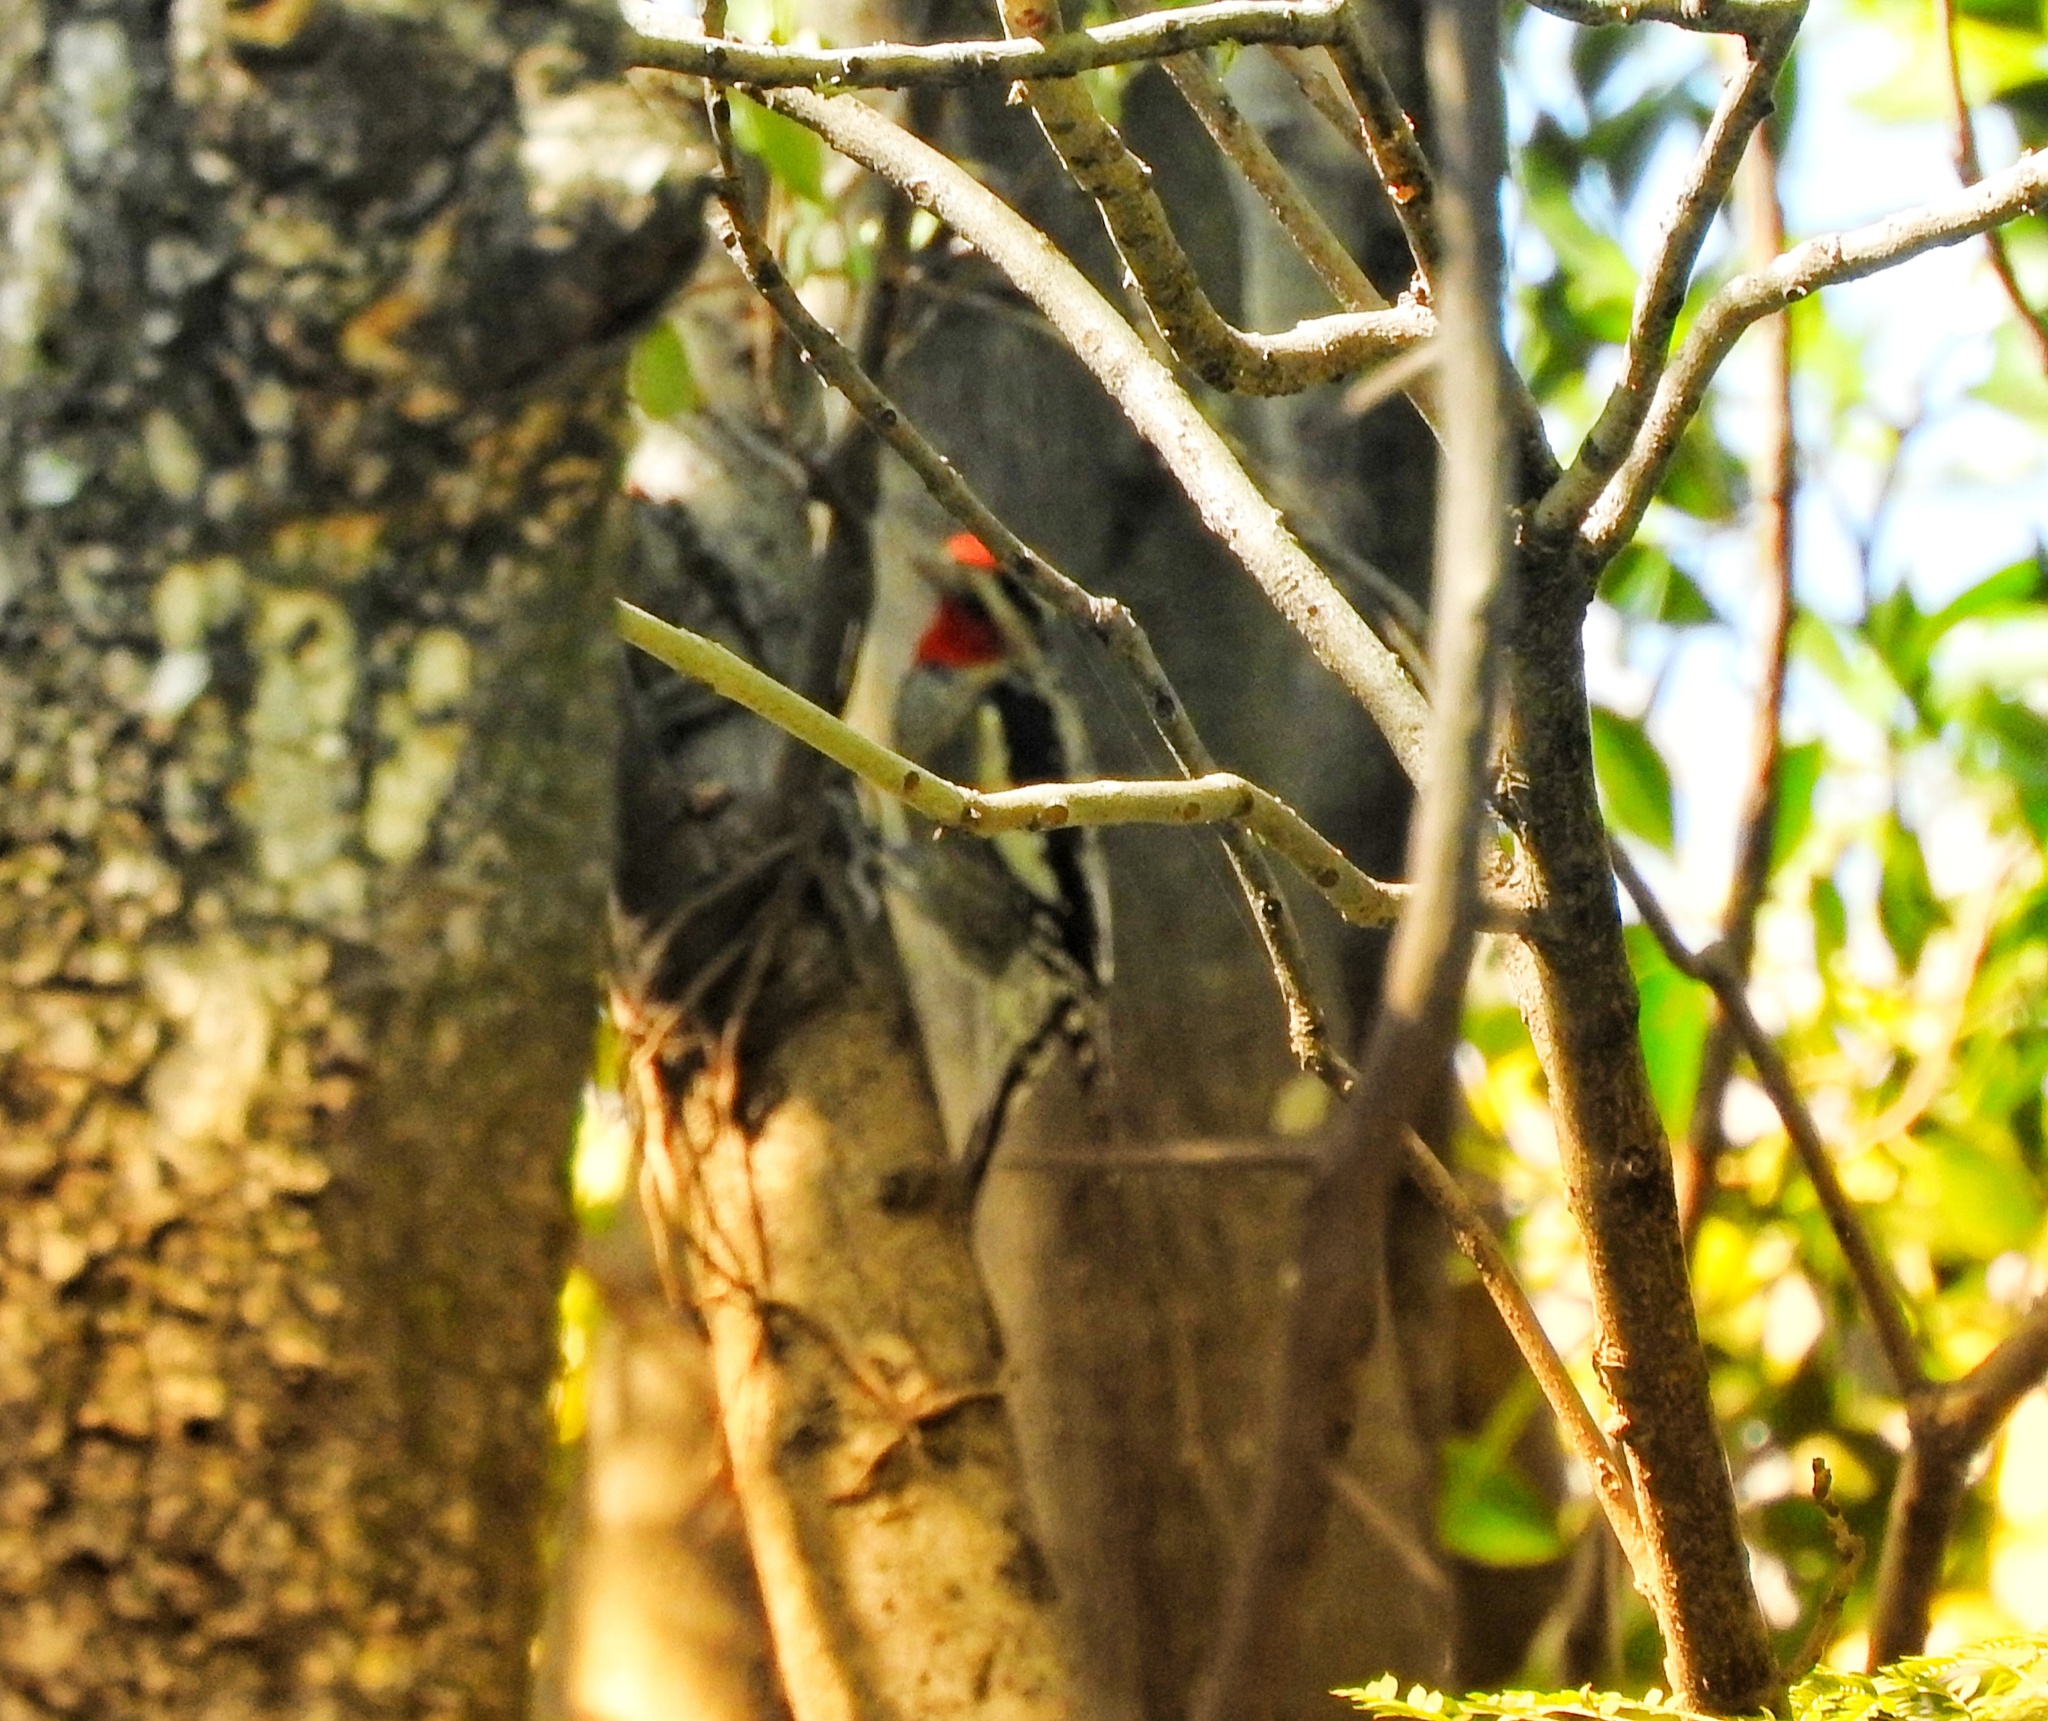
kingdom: Animalia
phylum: Chordata
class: Aves
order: Piciformes
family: Picidae
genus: Sphyrapicus
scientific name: Sphyrapicus nuchalis
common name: Red-naped sapsucker
